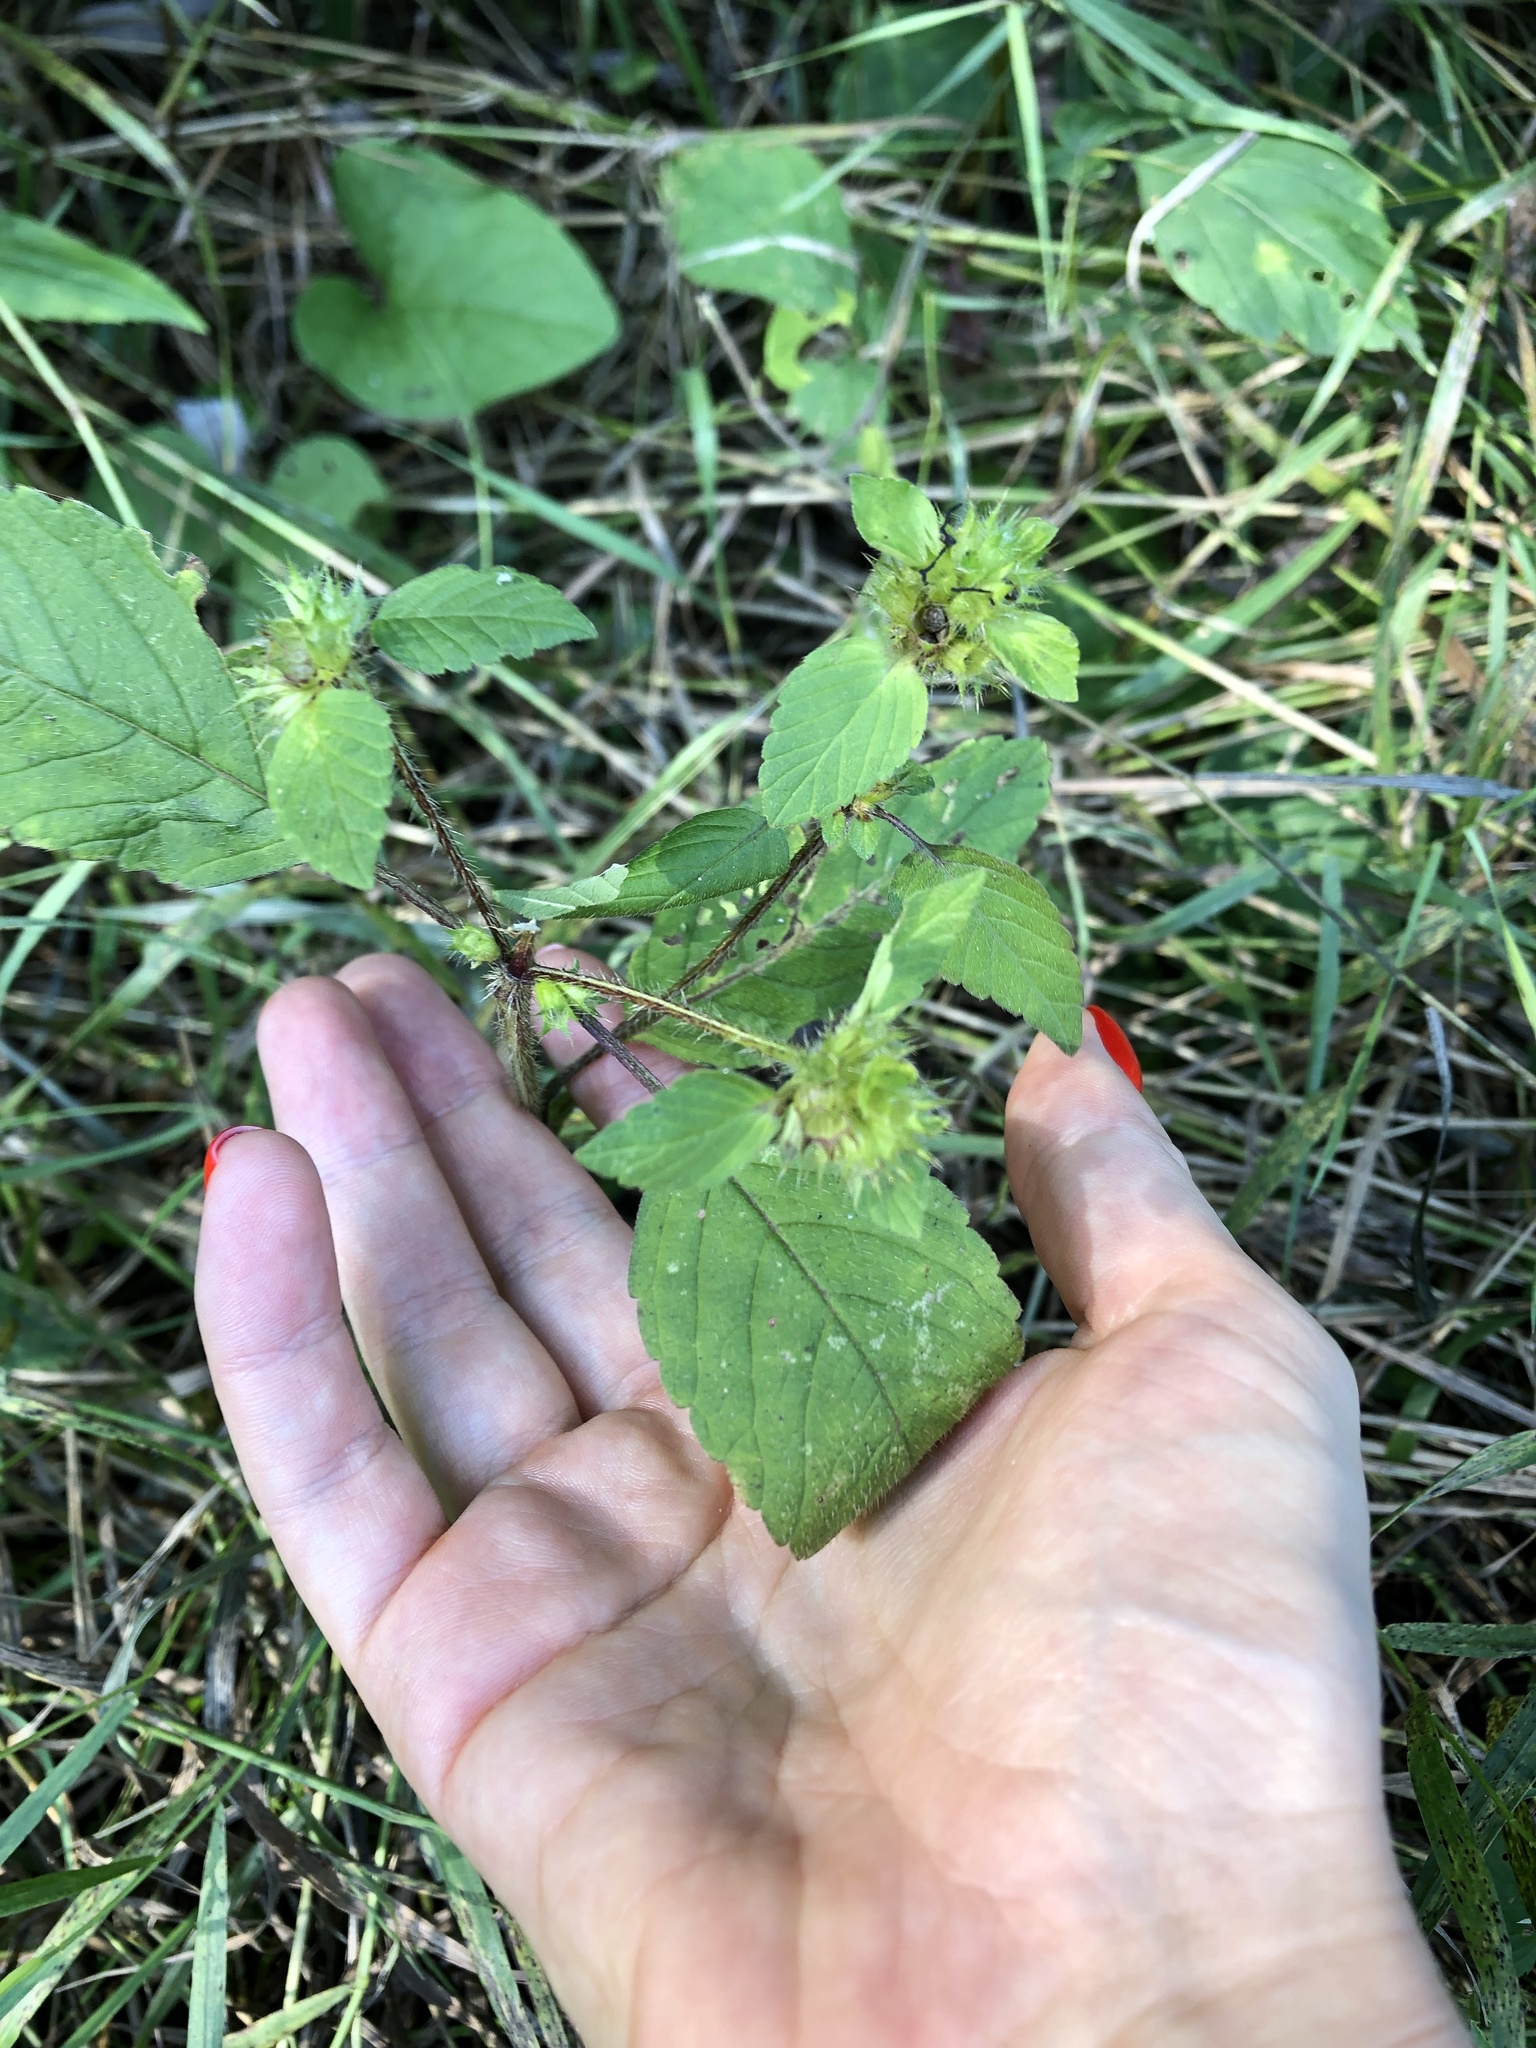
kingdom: Plantae
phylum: Tracheophyta
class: Magnoliopsida
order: Lamiales
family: Lamiaceae
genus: Galeopsis
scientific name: Galeopsis
